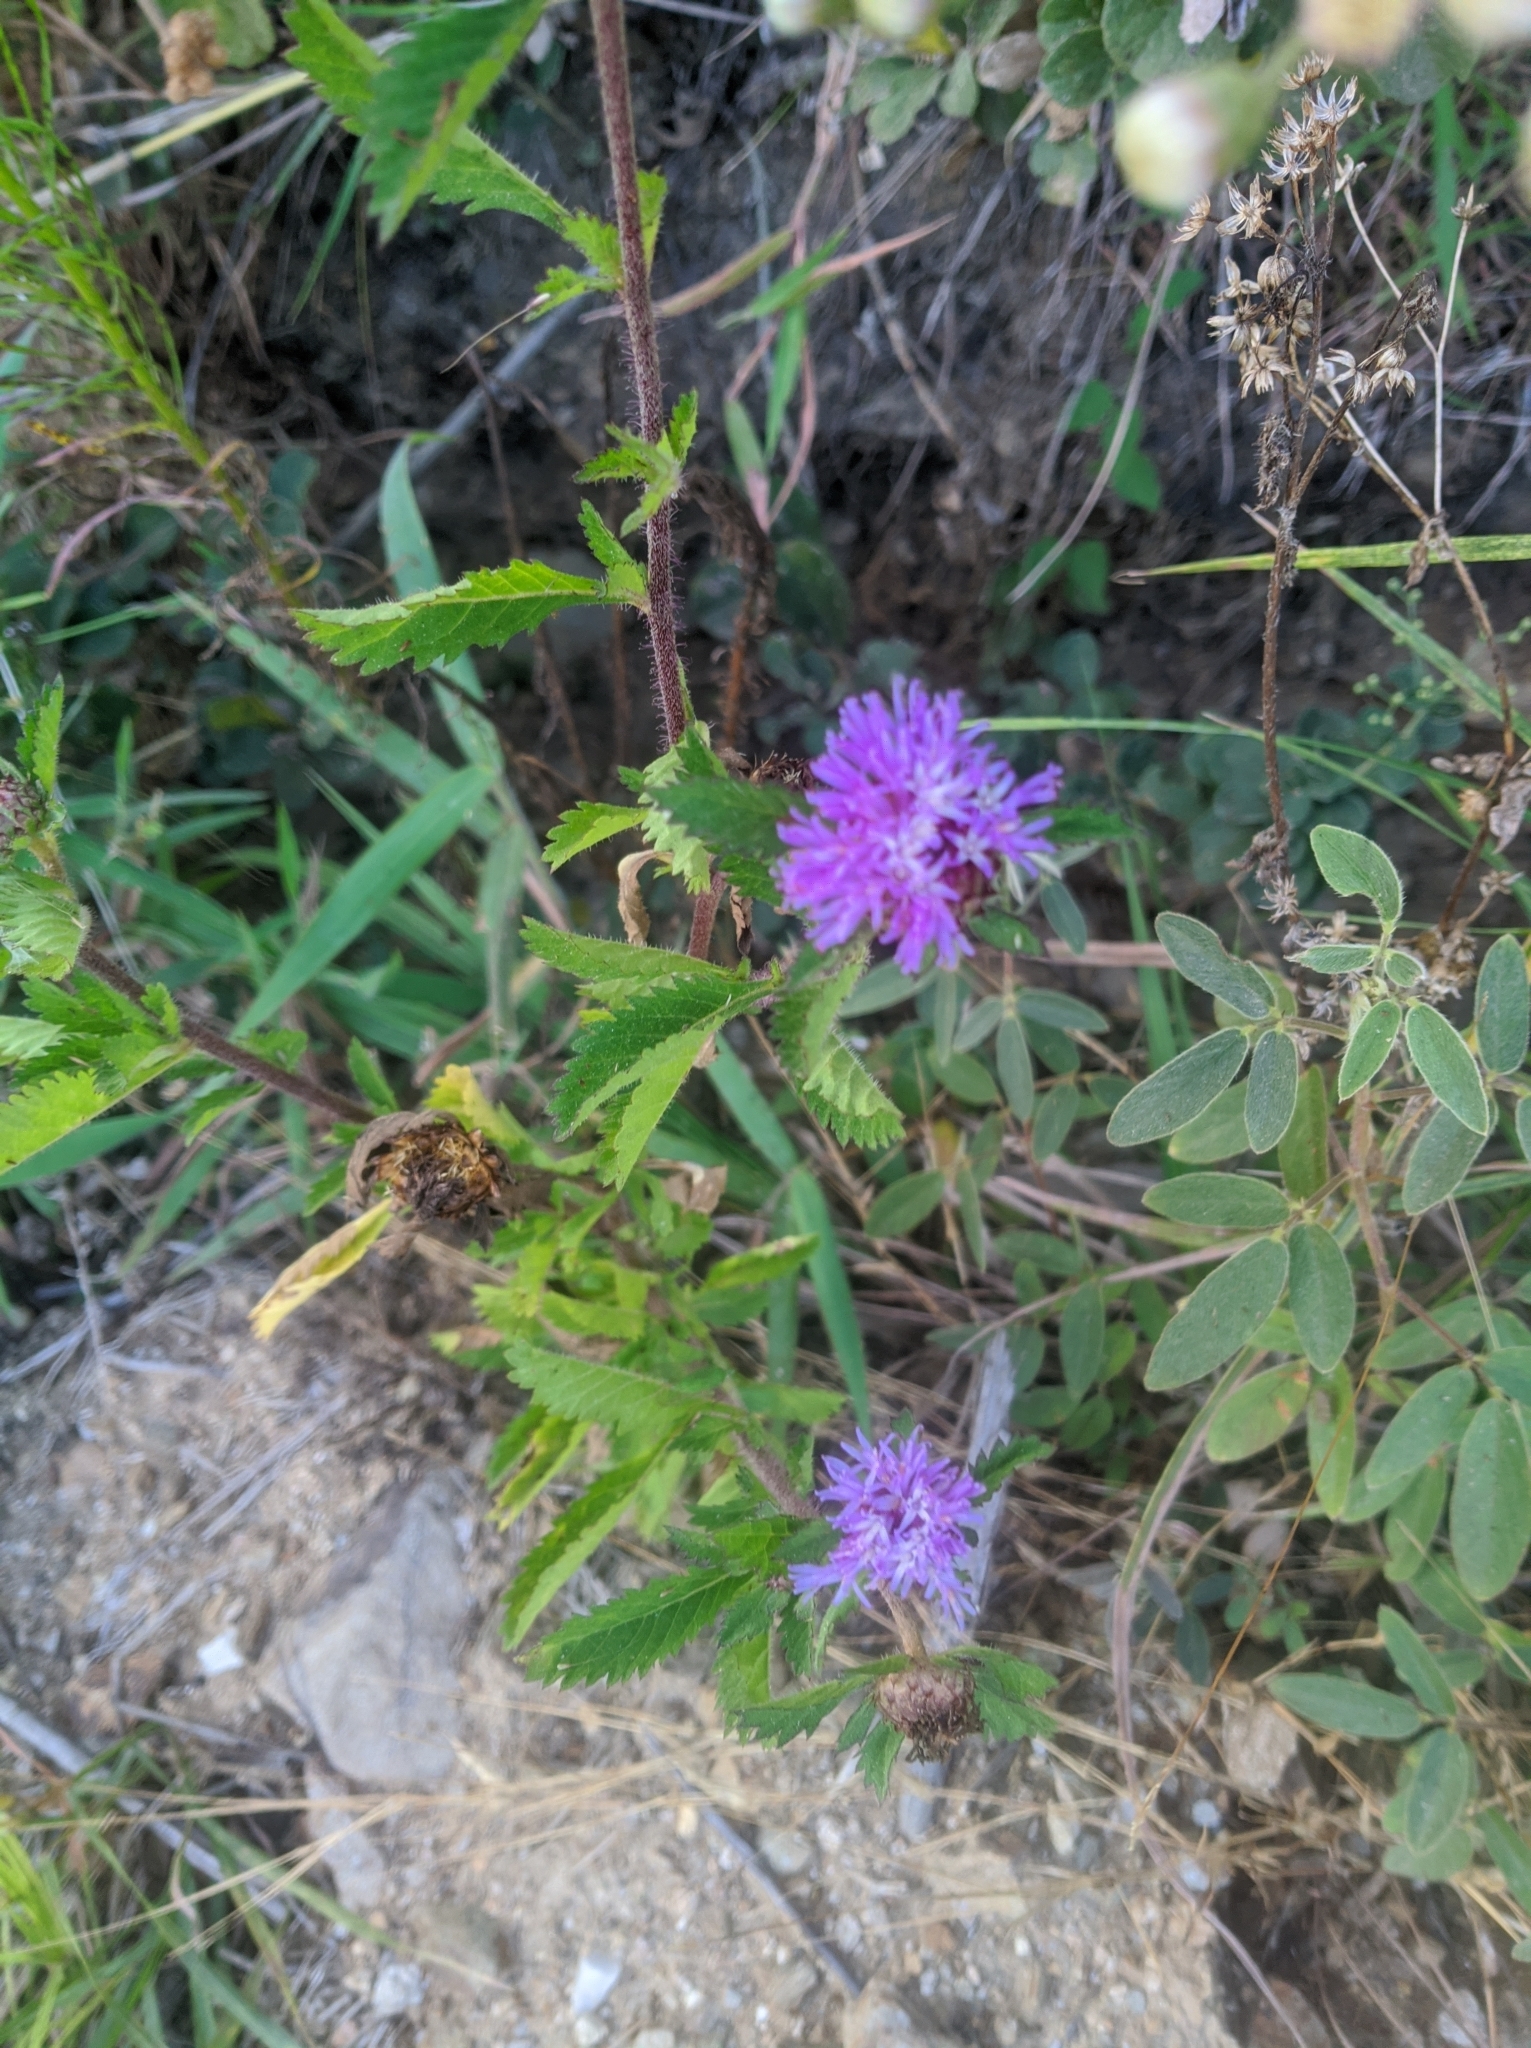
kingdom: Plantae
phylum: Tracheophyta
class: Magnoliopsida
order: Asterales
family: Asteraceae
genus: Centratherum
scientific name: Centratherum punctatum
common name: Larkdaisy
